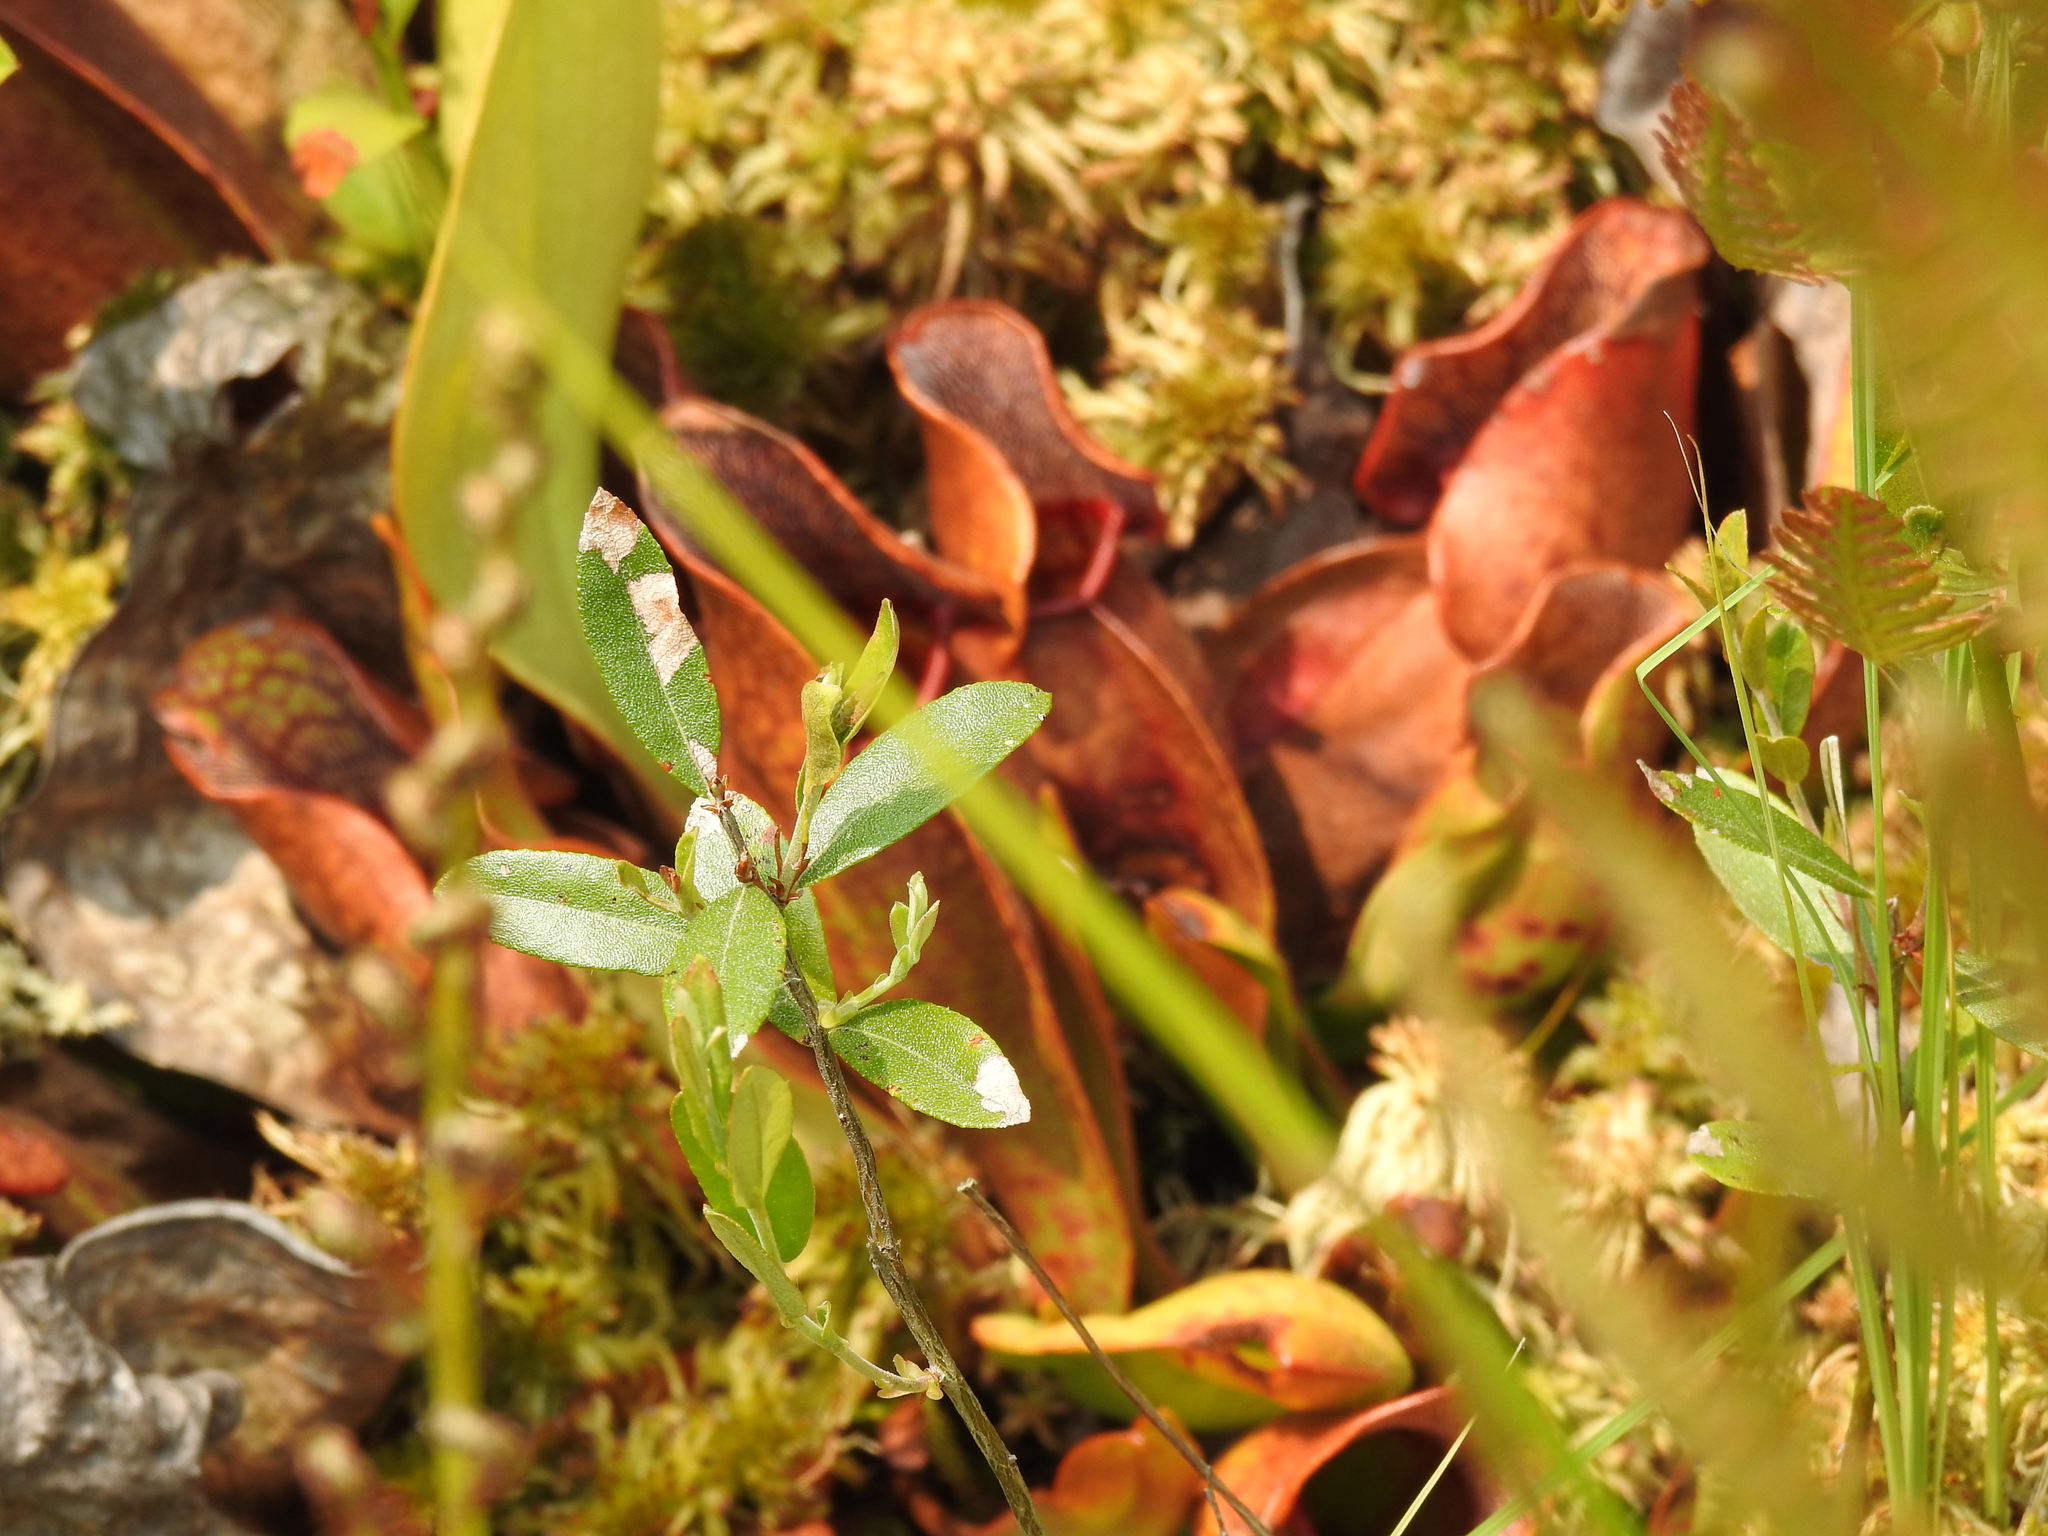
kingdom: Plantae
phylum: Tracheophyta
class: Magnoliopsida
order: Ericales
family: Sarraceniaceae
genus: Sarracenia
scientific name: Sarracenia purpurea
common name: Pitcherplant
